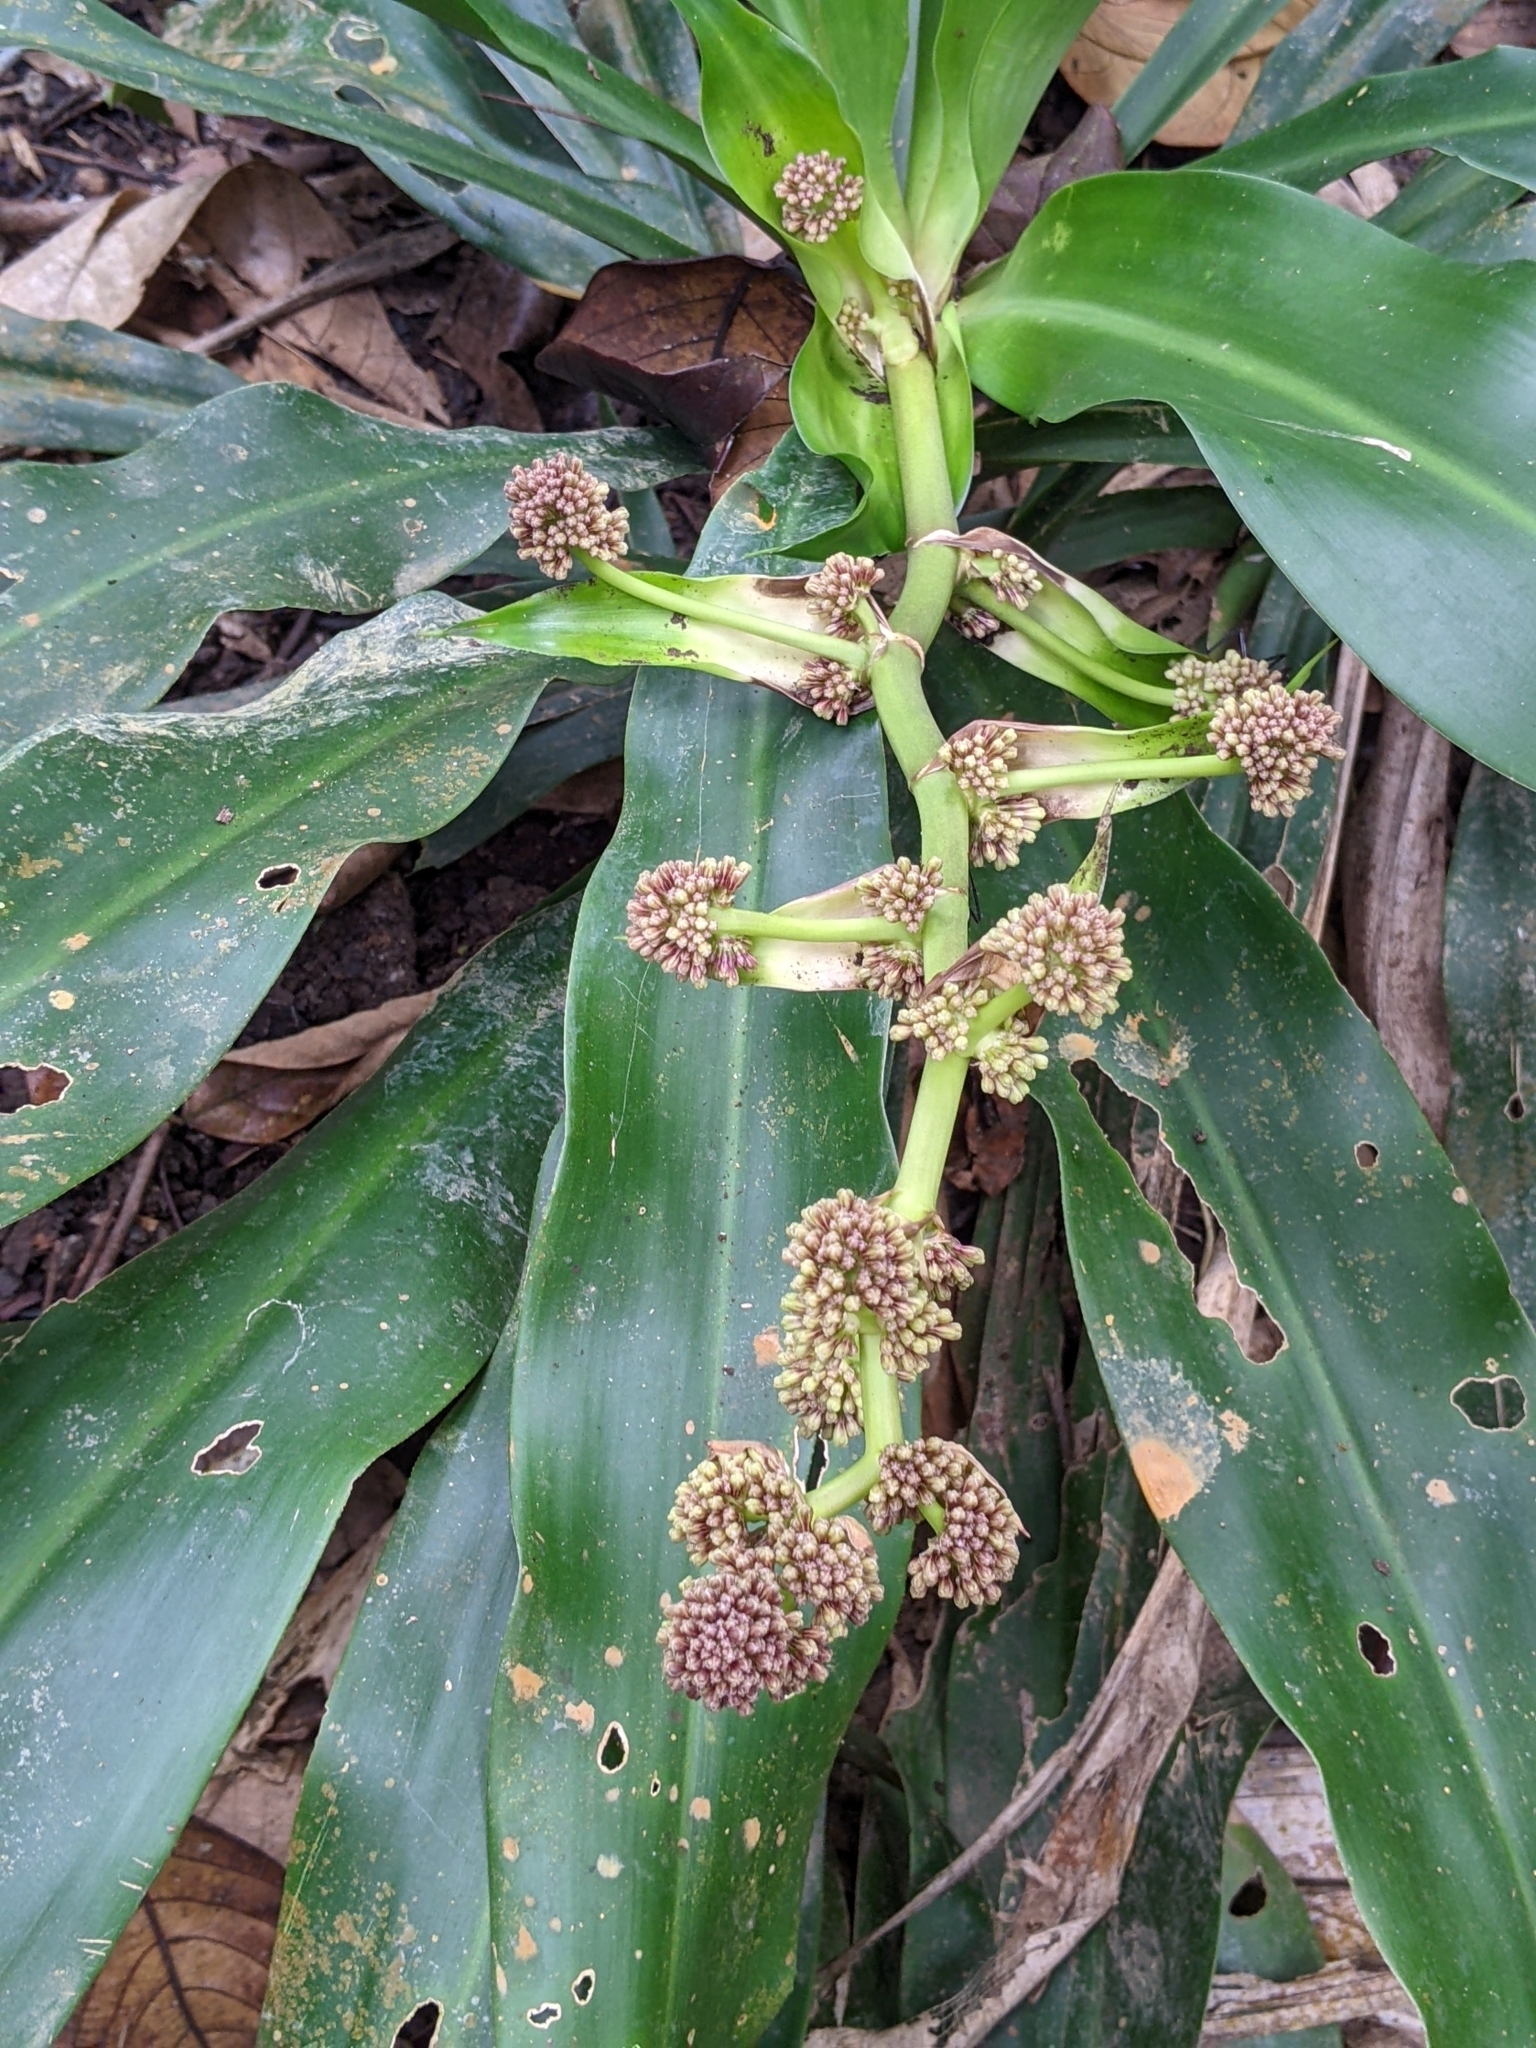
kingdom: Plantae
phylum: Tracheophyta
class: Liliopsida
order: Asparagales
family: Asparagaceae
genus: Dracaena
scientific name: Dracaena fragrans
